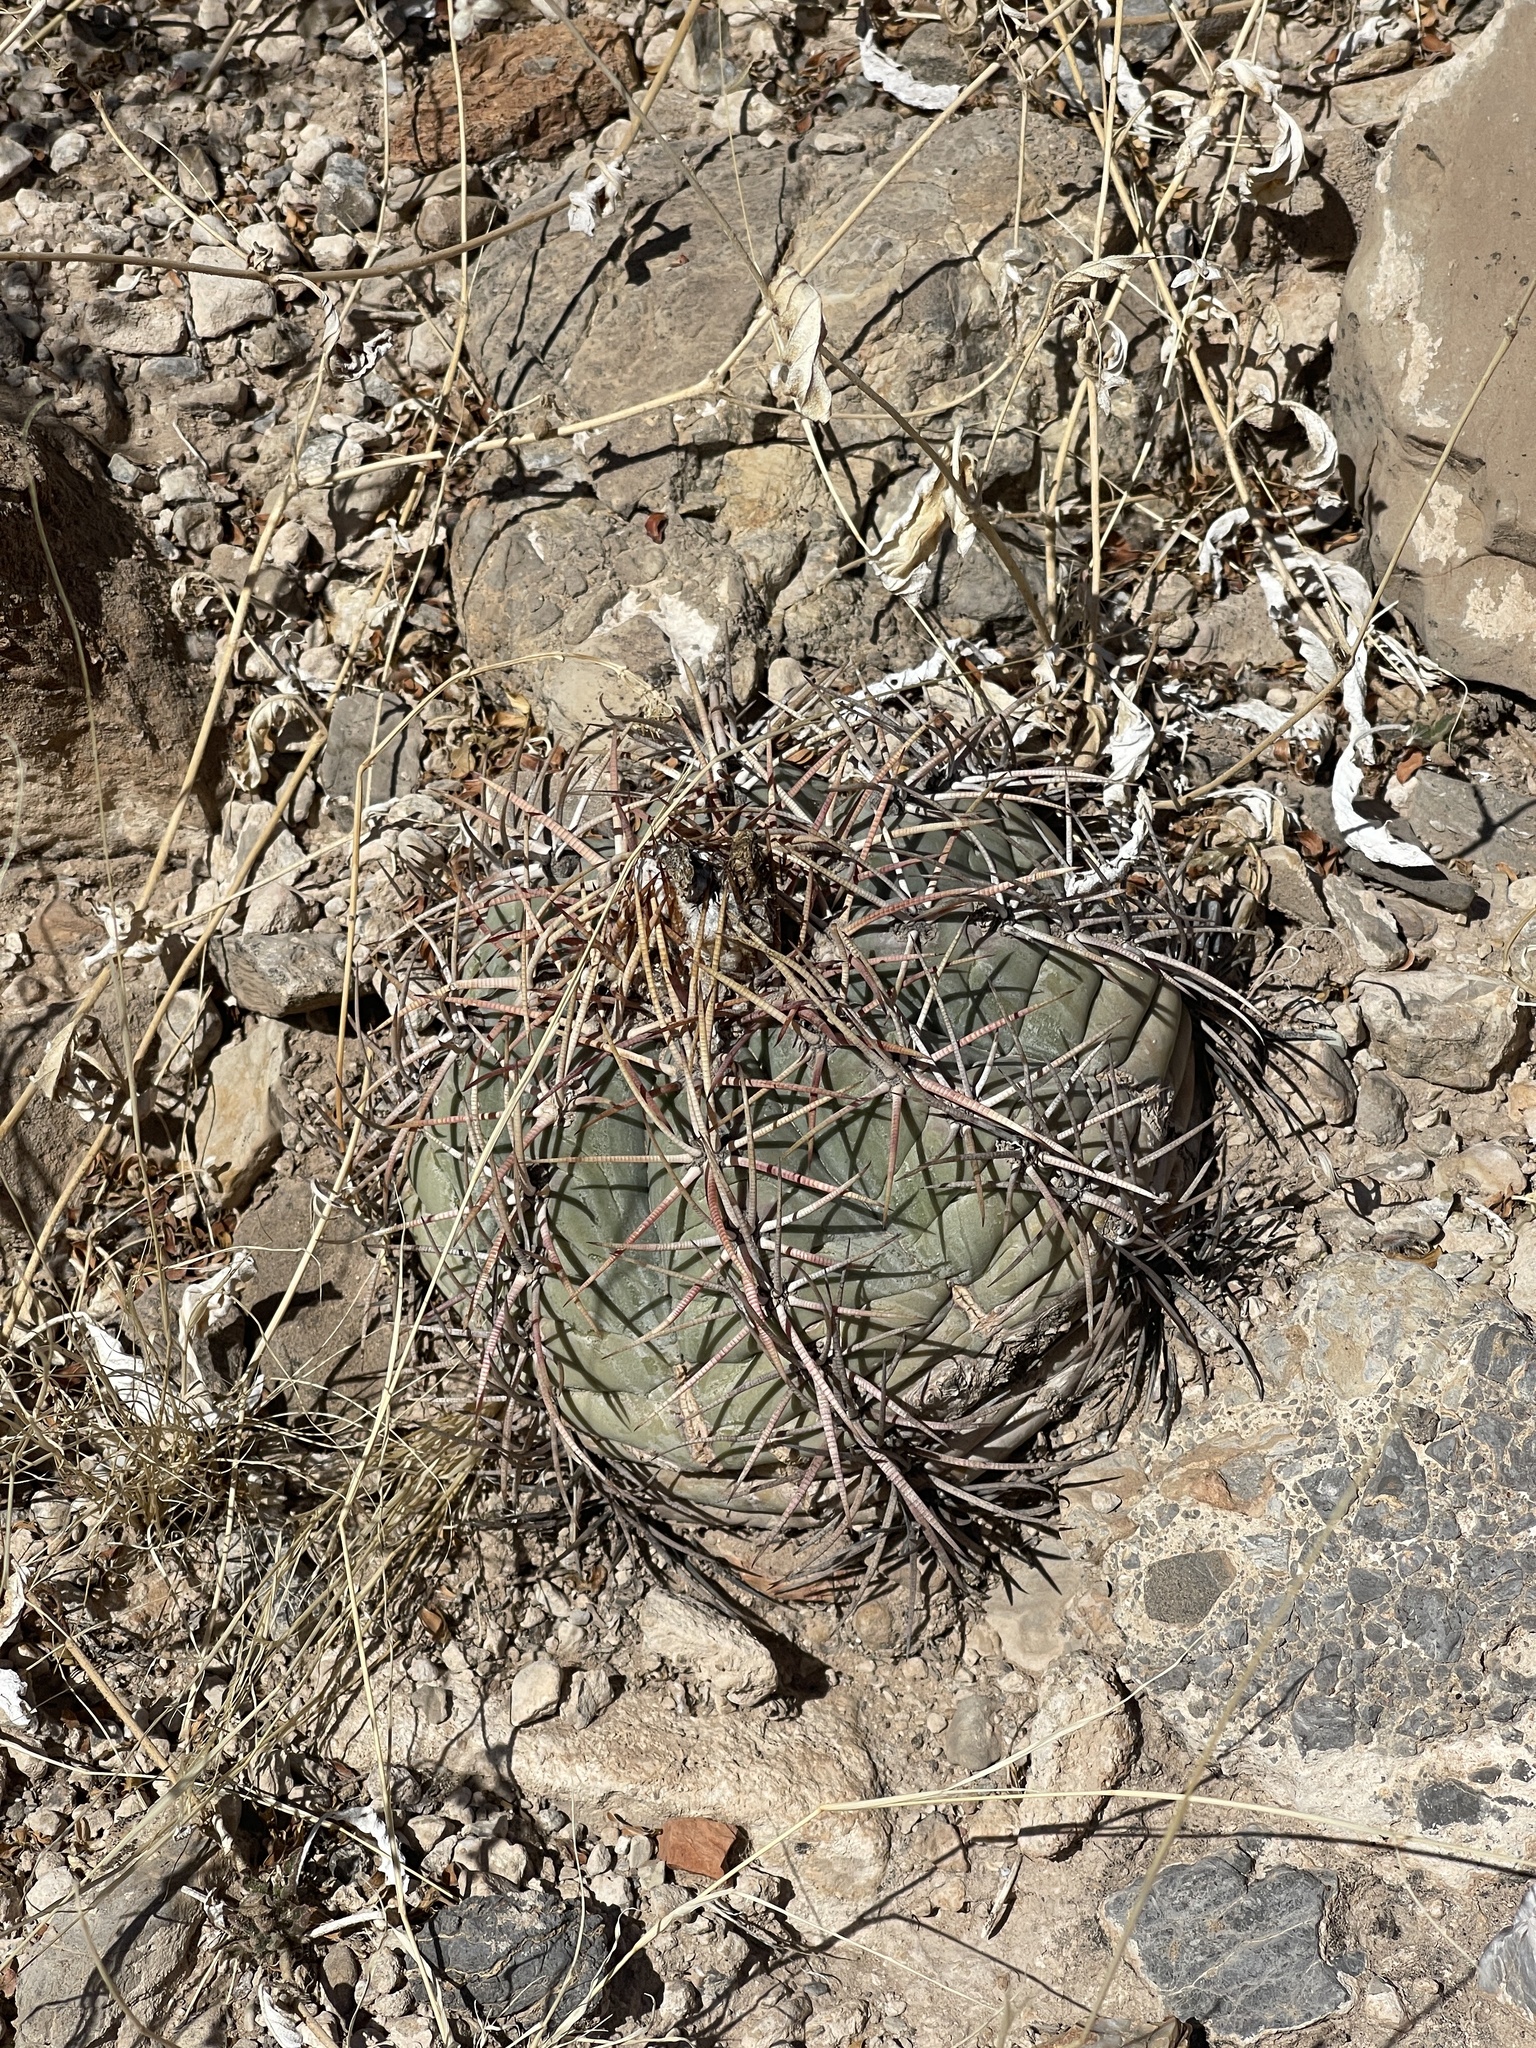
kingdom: Plantae
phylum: Tracheophyta
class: Magnoliopsida
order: Caryophyllales
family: Cactaceae
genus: Echinocactus
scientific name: Echinocactus horizonthalonius
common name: Devilshead
